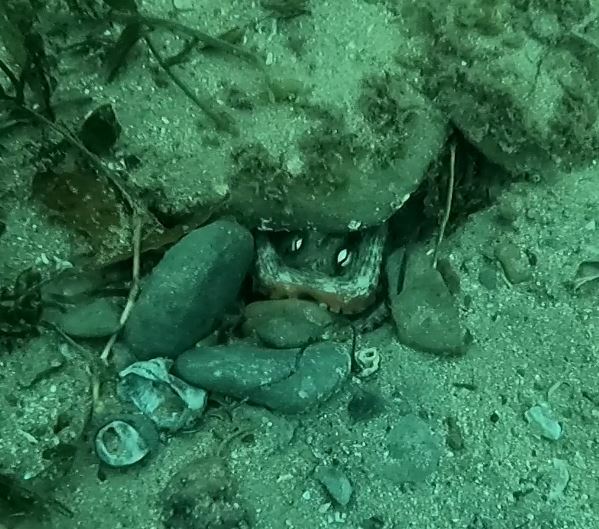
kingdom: Animalia
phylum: Mollusca
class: Cephalopoda
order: Octopoda
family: Octopodidae
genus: Octopus
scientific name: Octopus tetricus
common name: Sydney octopus
